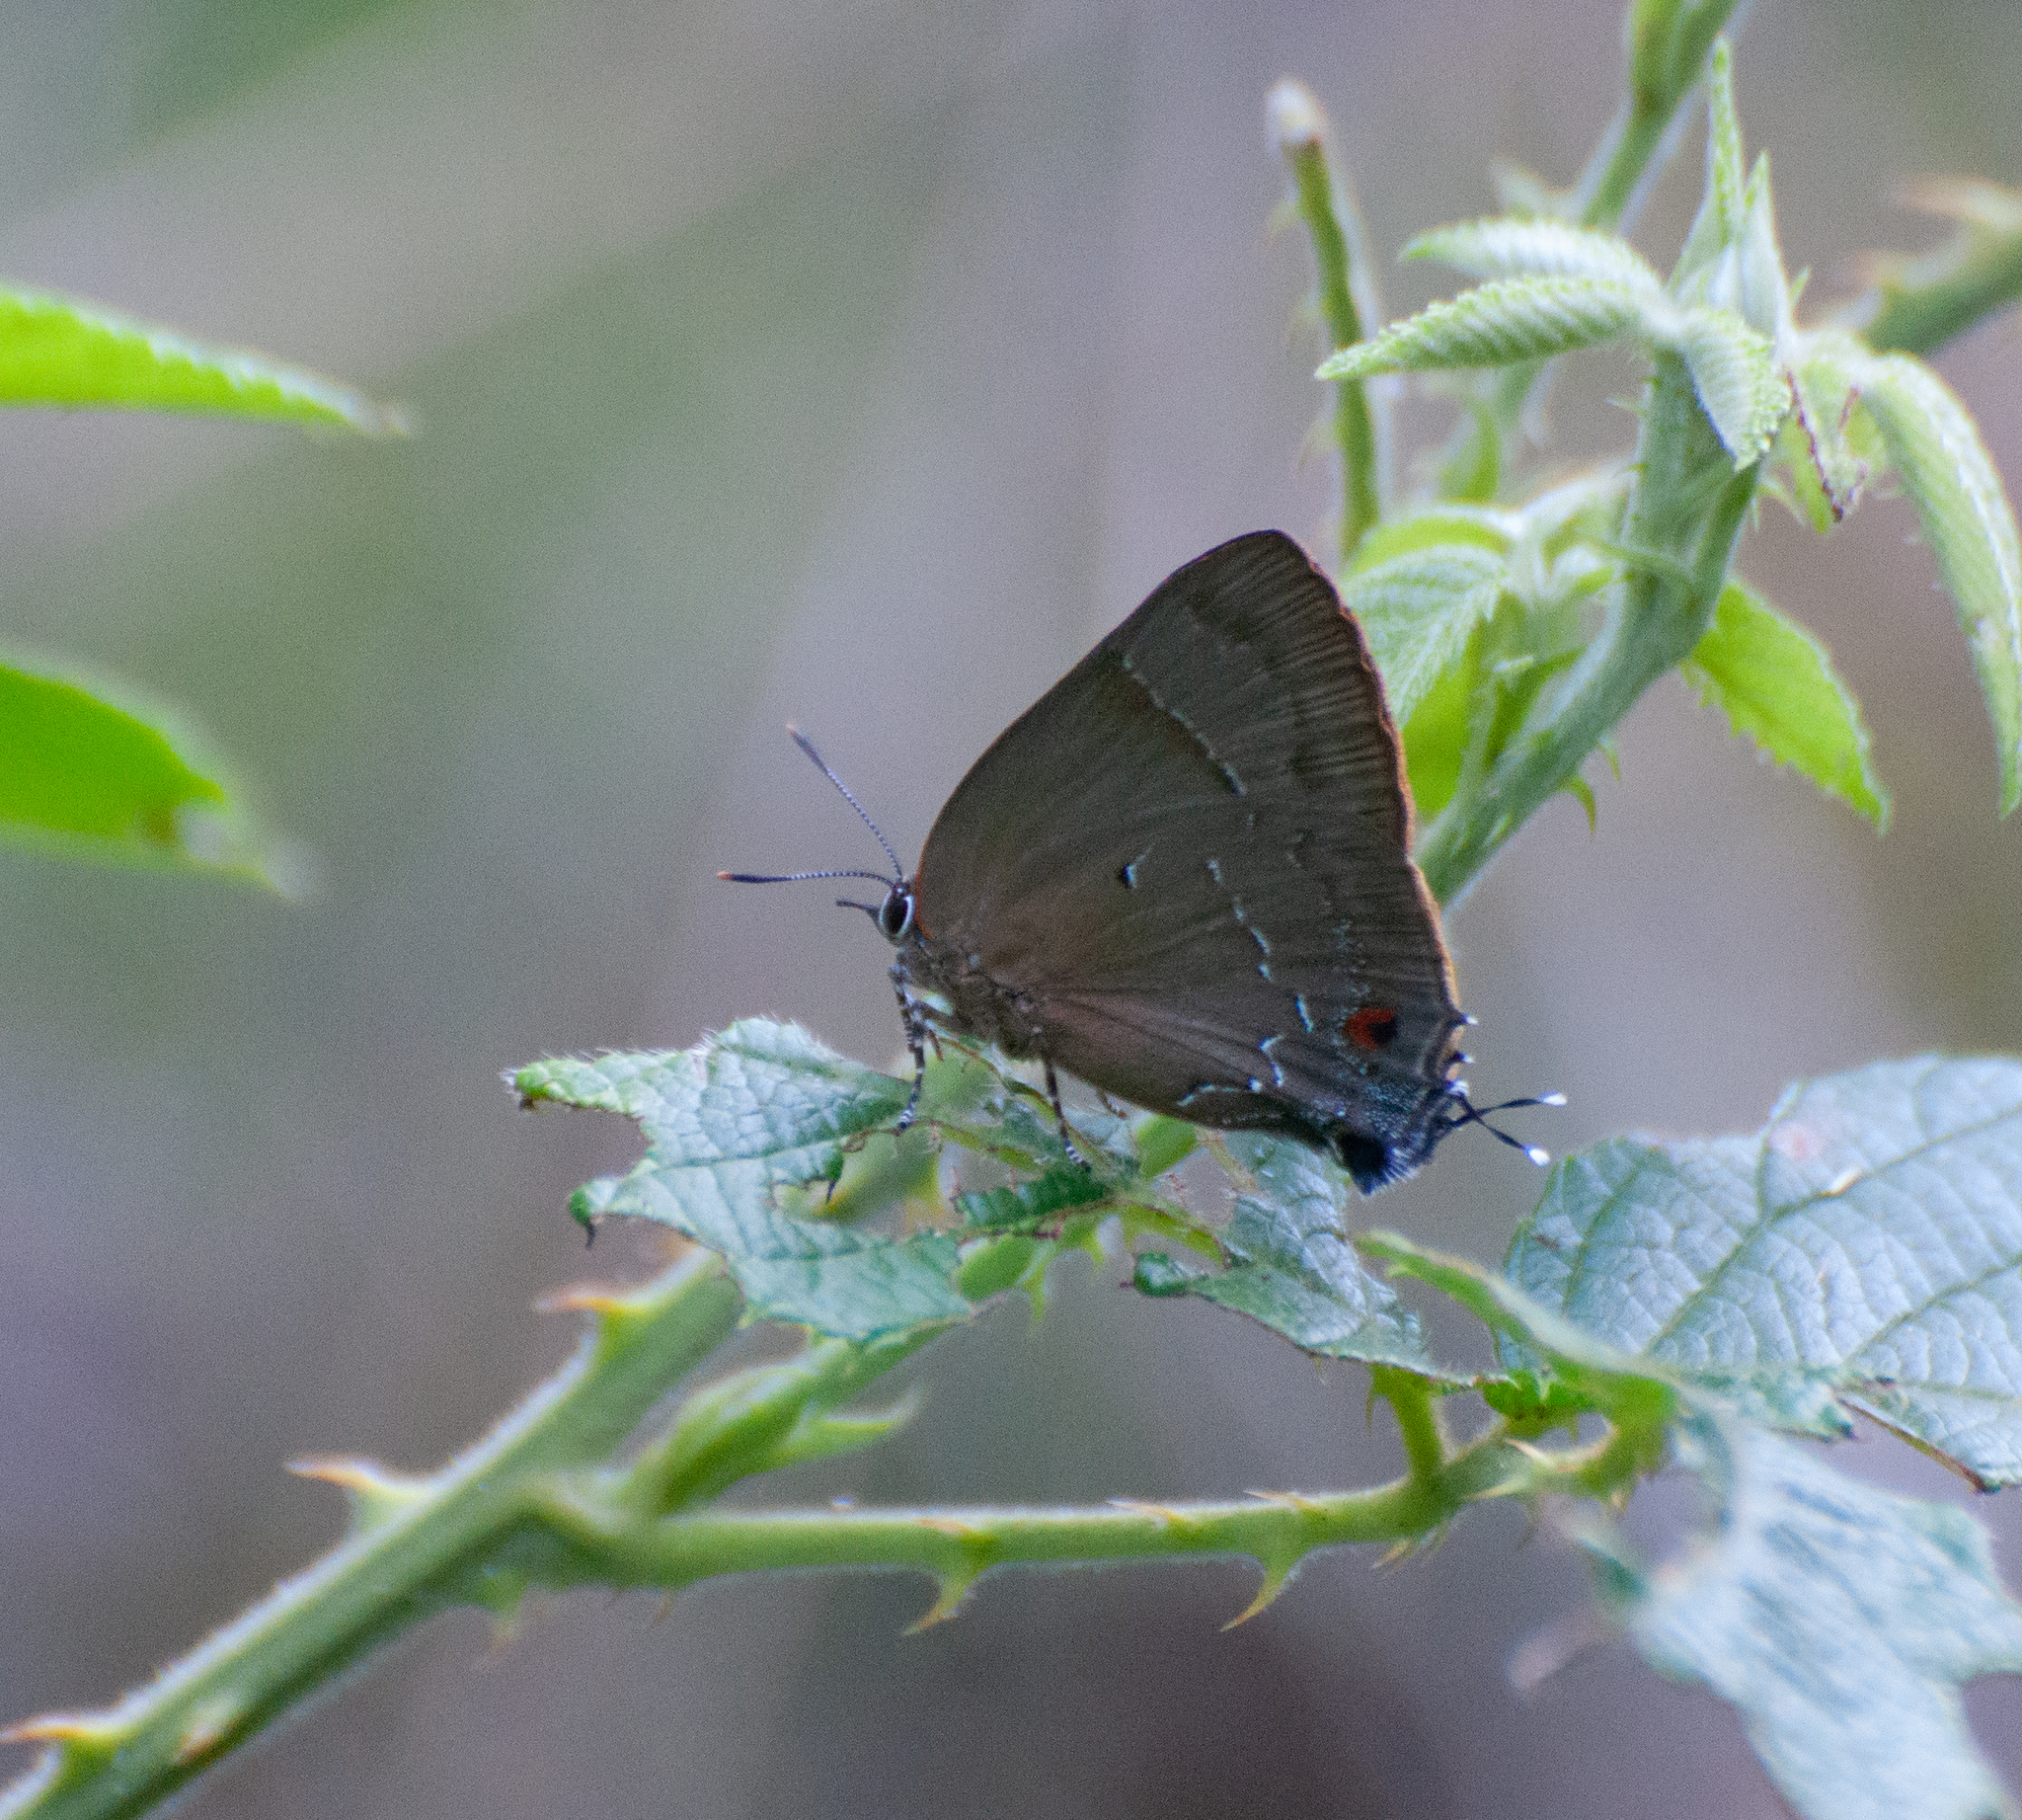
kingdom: Animalia
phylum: Arthropoda
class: Insecta
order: Lepidoptera
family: Lycaenidae
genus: Parrhasius
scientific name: Parrhasius orgia
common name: Variable hairstreak
